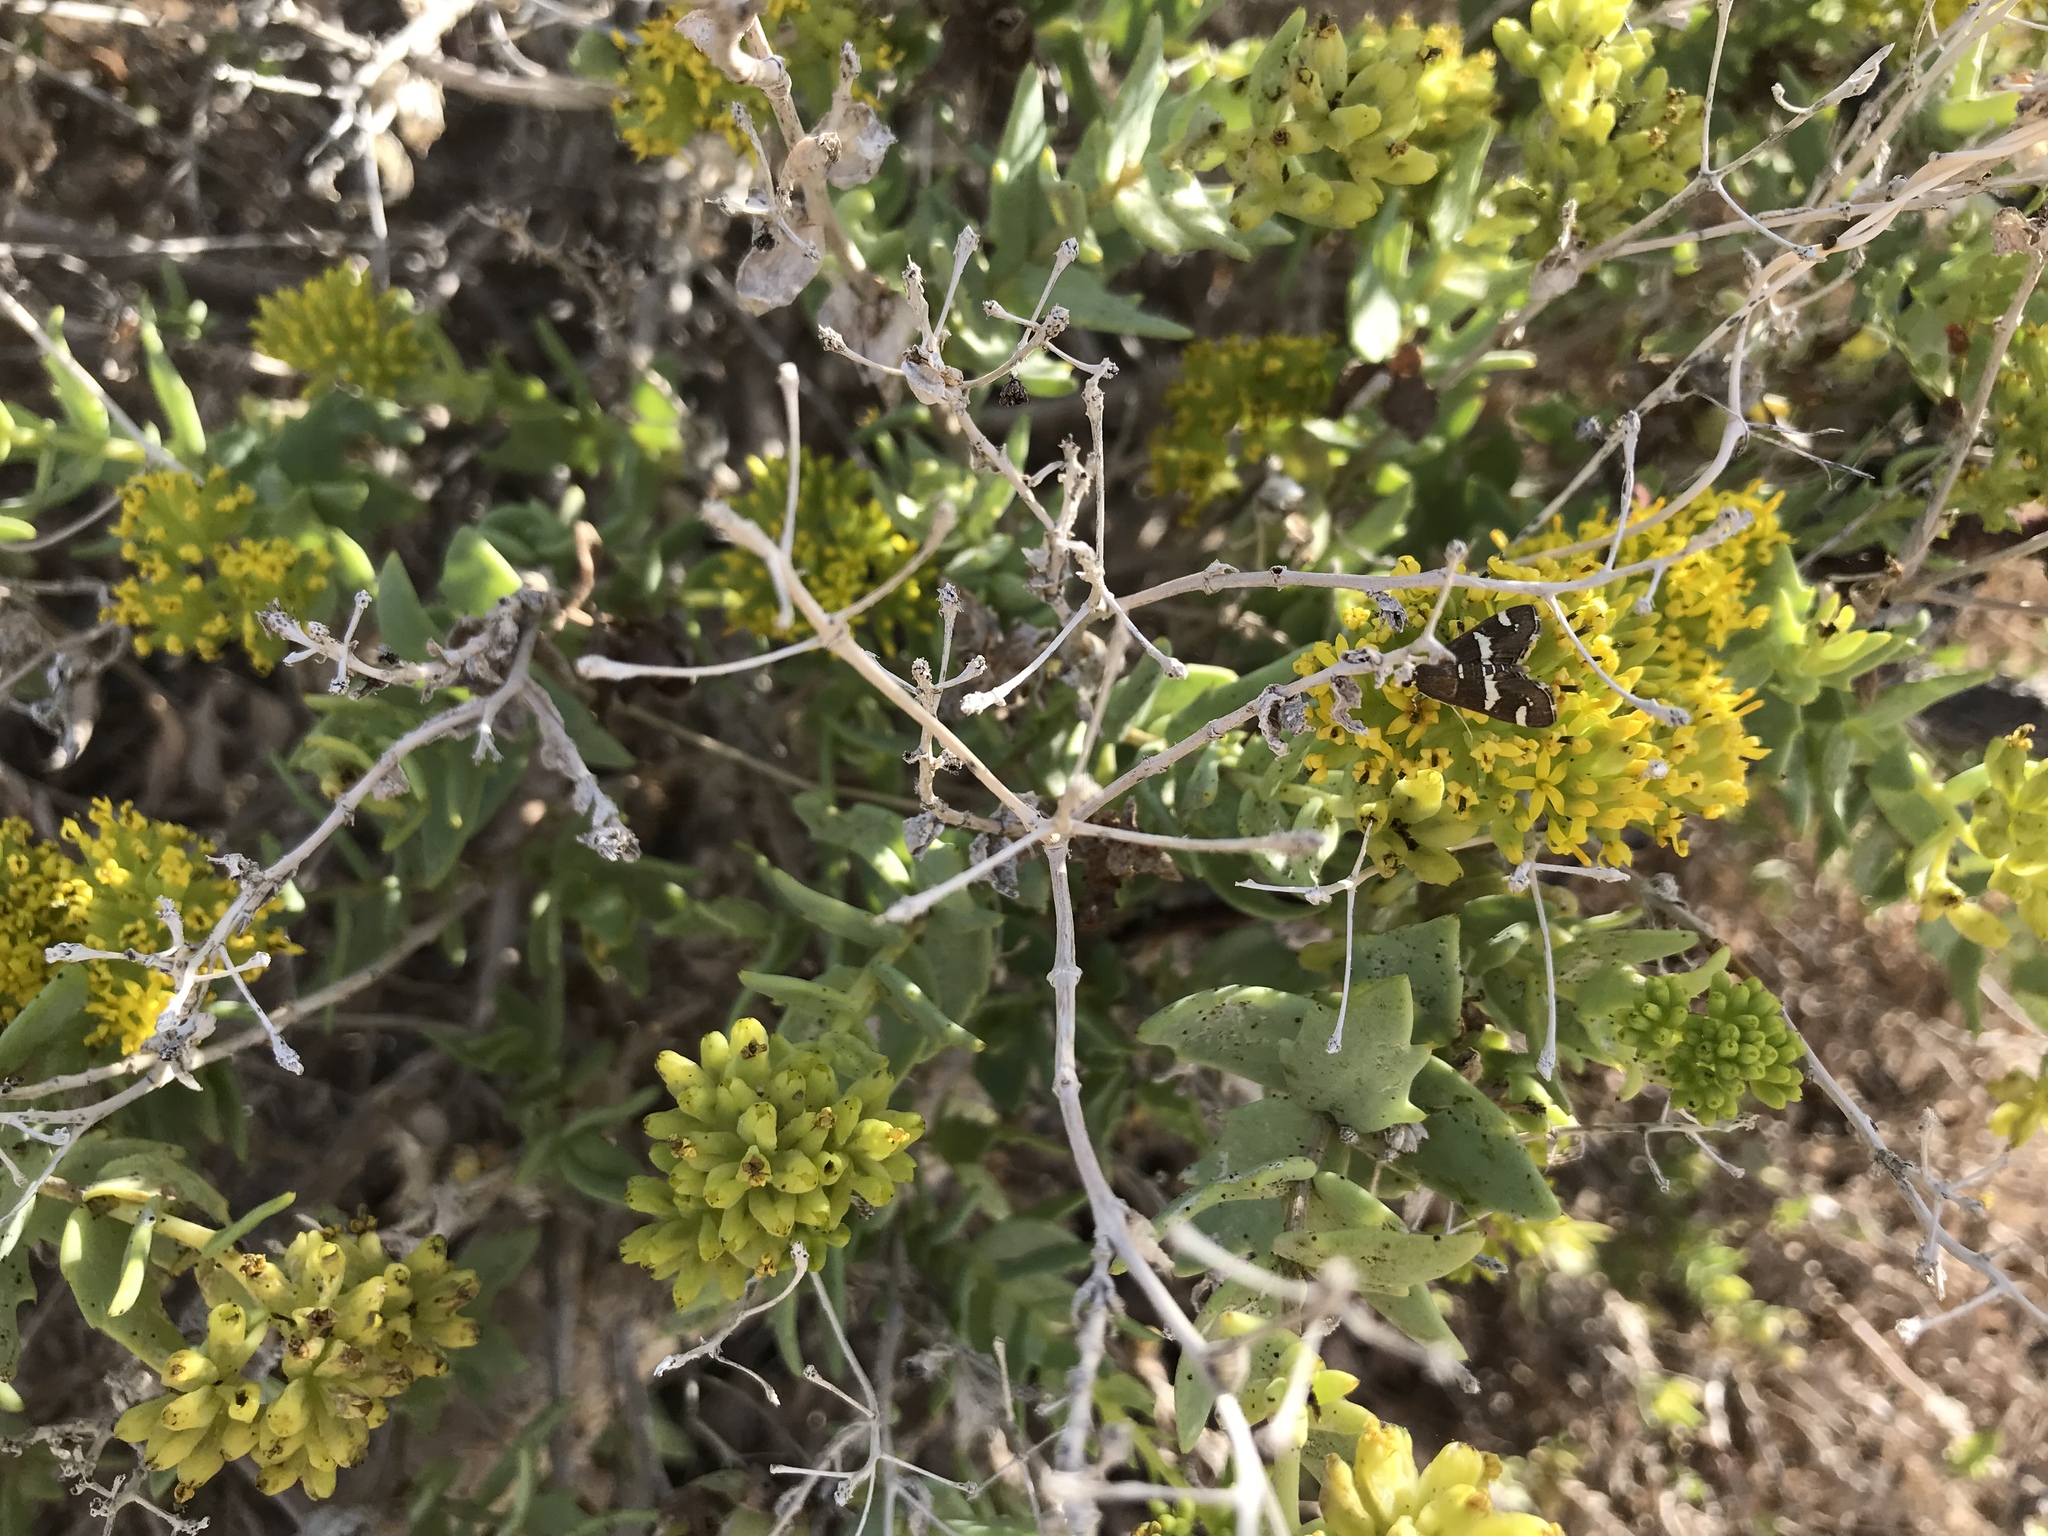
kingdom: Plantae
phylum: Tracheophyta
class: Magnoliopsida
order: Asterales
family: Asteraceae
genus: Coulterella
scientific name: Coulterella capitata
